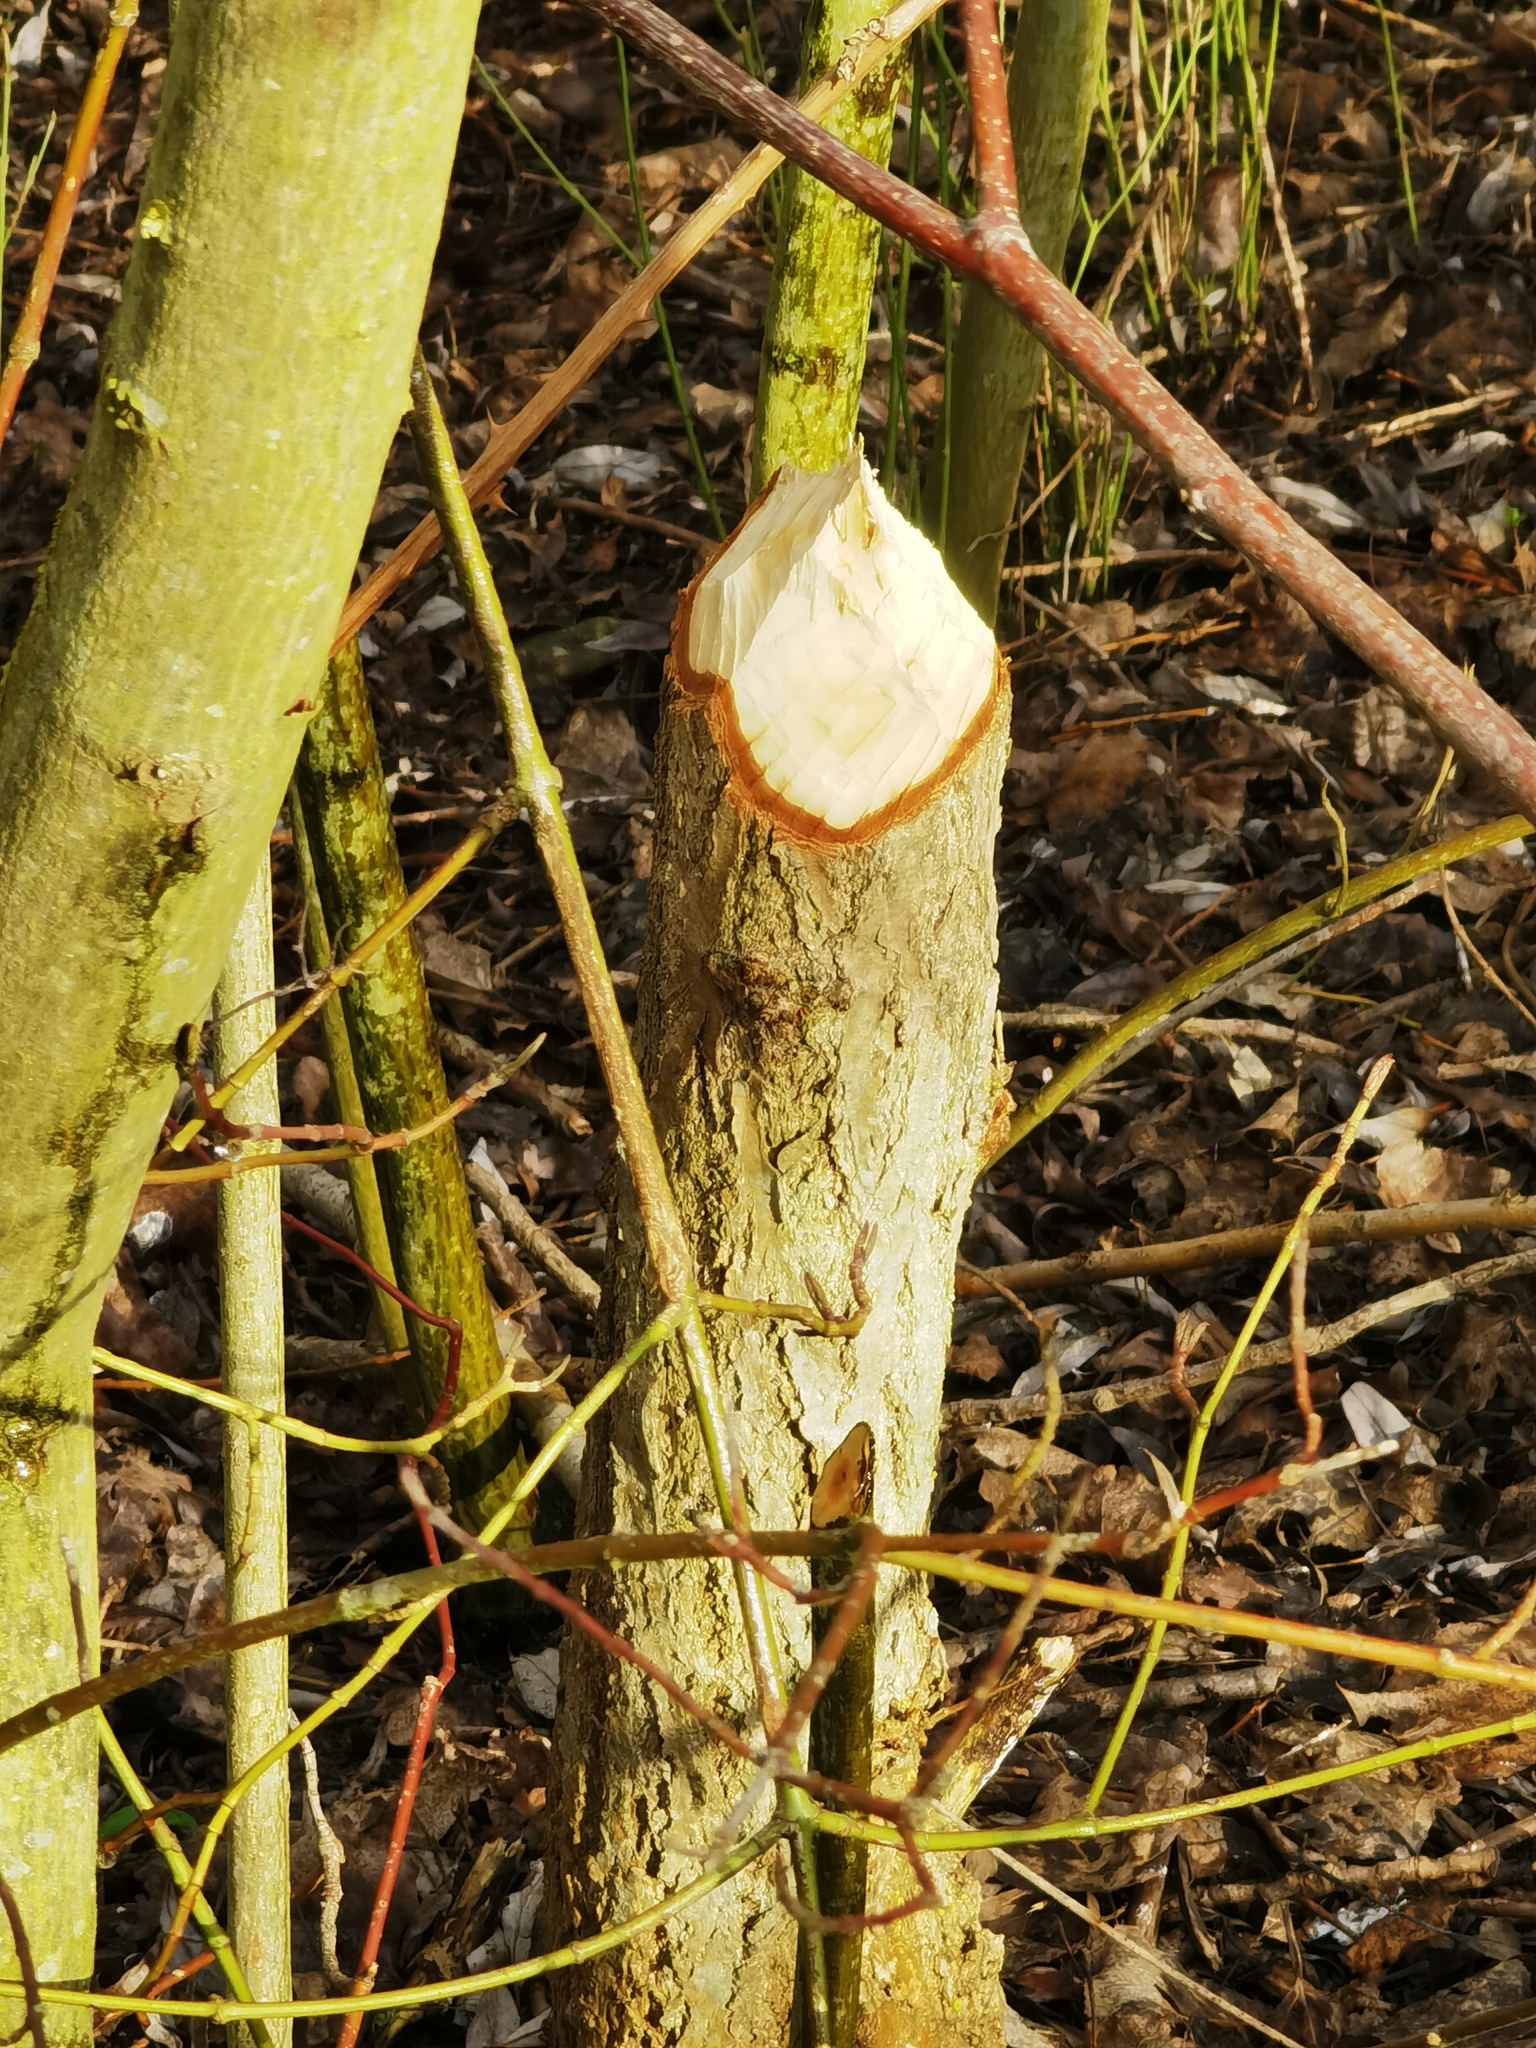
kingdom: Animalia
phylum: Chordata
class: Mammalia
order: Rodentia
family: Castoridae
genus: Castor
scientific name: Castor fiber
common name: Eurasian beaver
